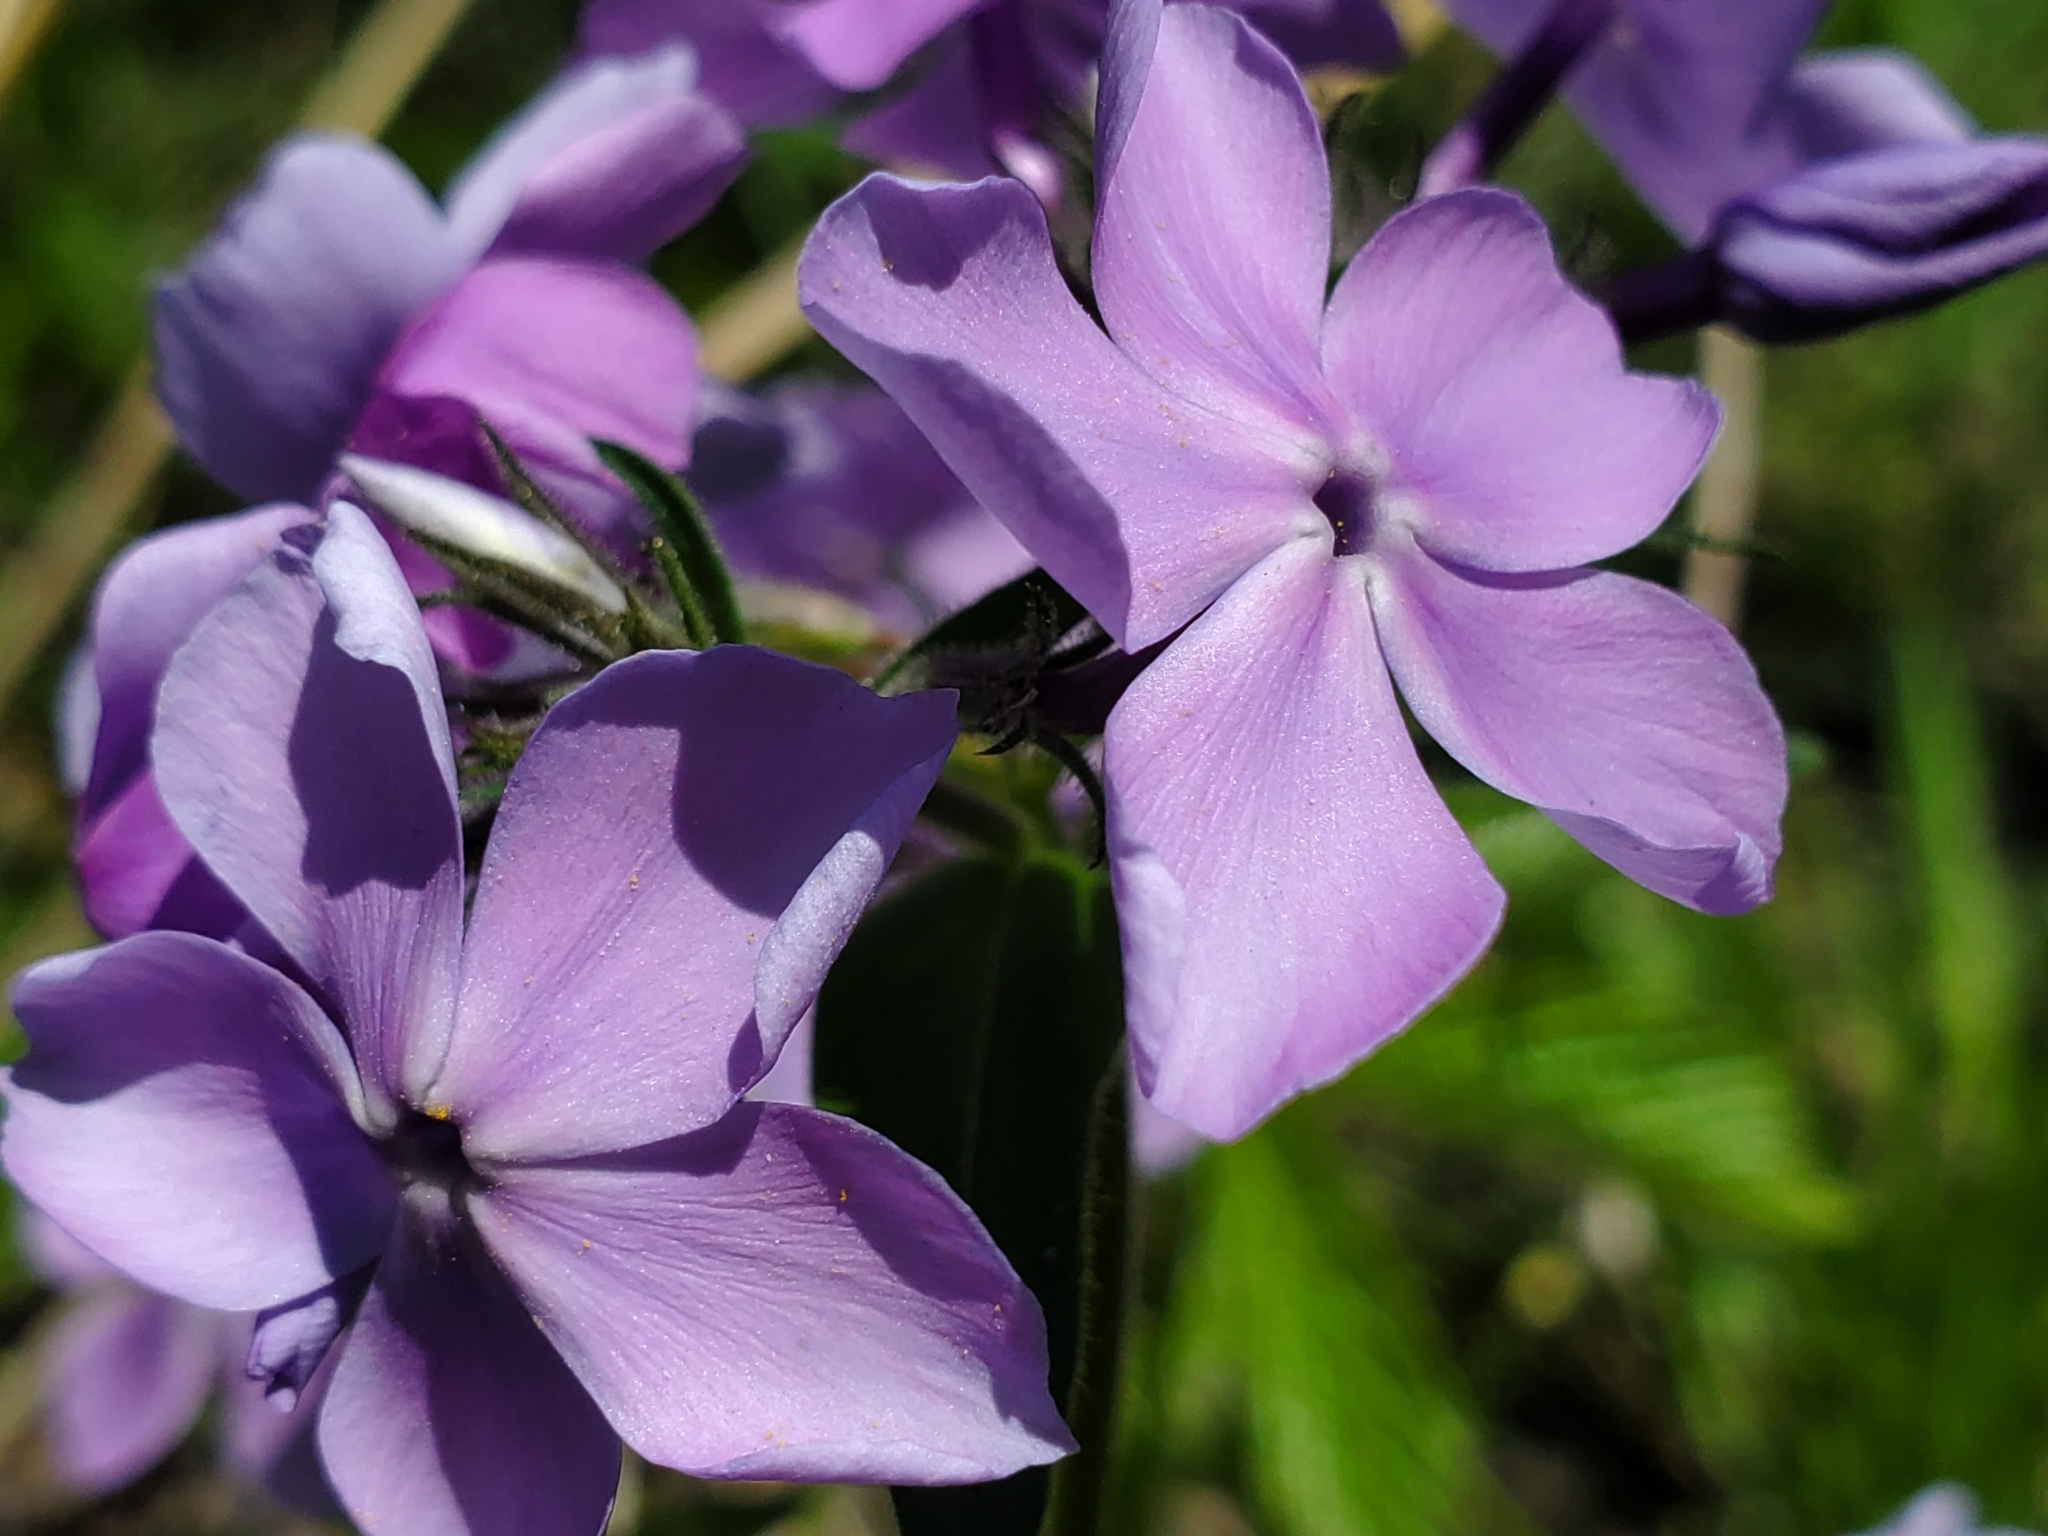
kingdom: Plantae
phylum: Tracheophyta
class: Magnoliopsida
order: Ericales
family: Polemoniaceae
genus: Phlox
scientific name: Phlox divaricata
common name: Blue phlox
